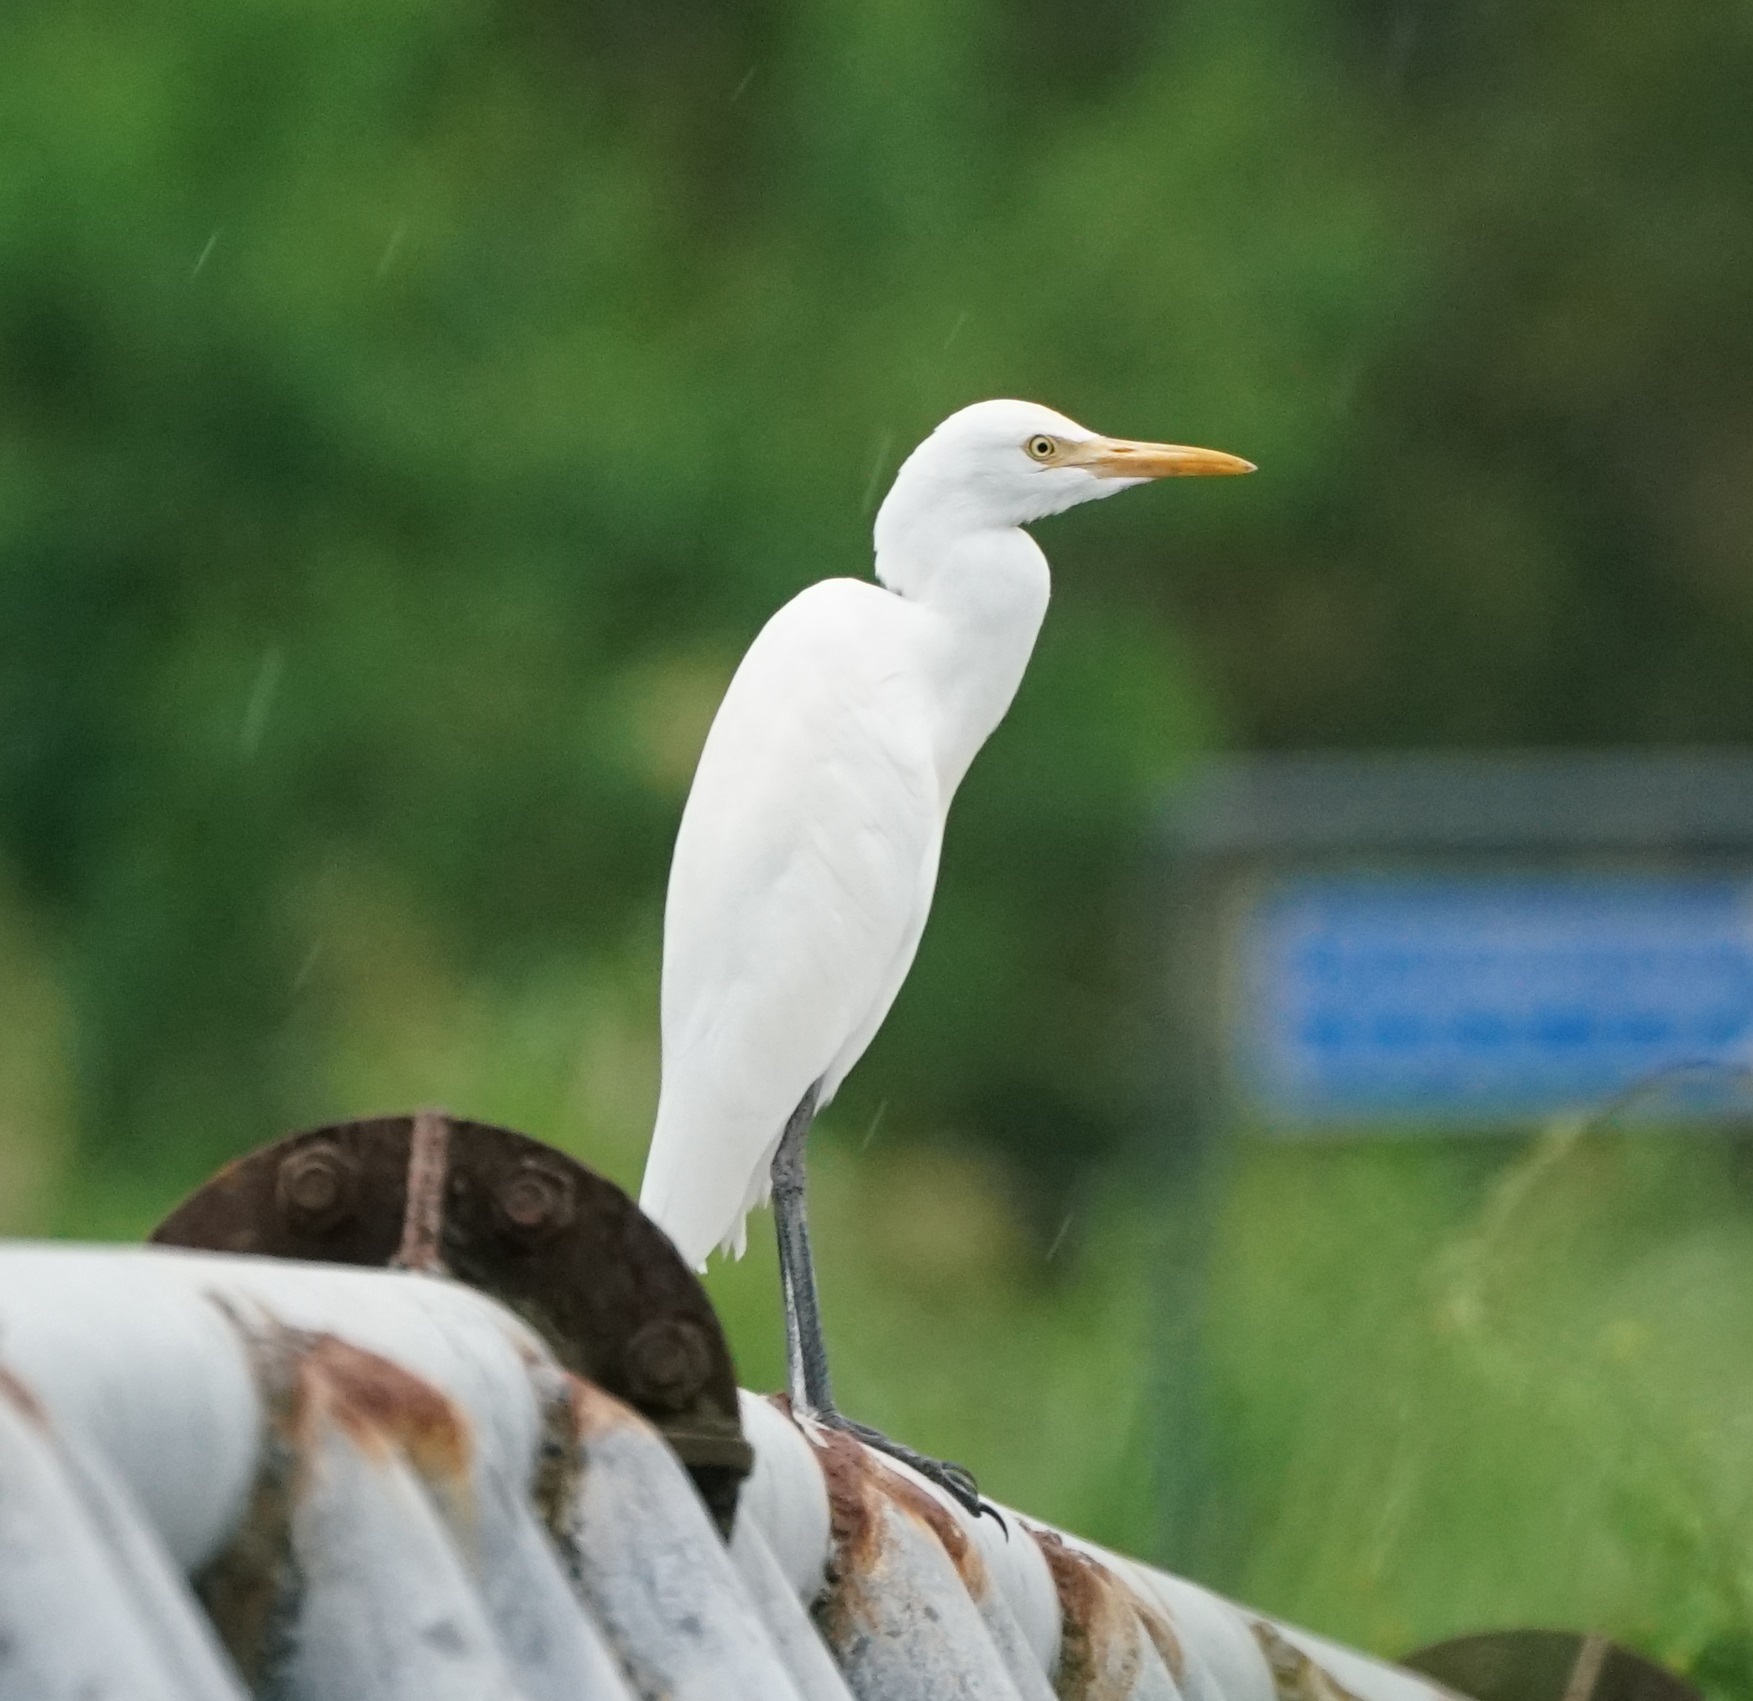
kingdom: Animalia
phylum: Chordata
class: Aves
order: Pelecaniformes
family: Ardeidae
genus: Bubulcus
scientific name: Bubulcus coromandus
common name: Eastern cattle egret
